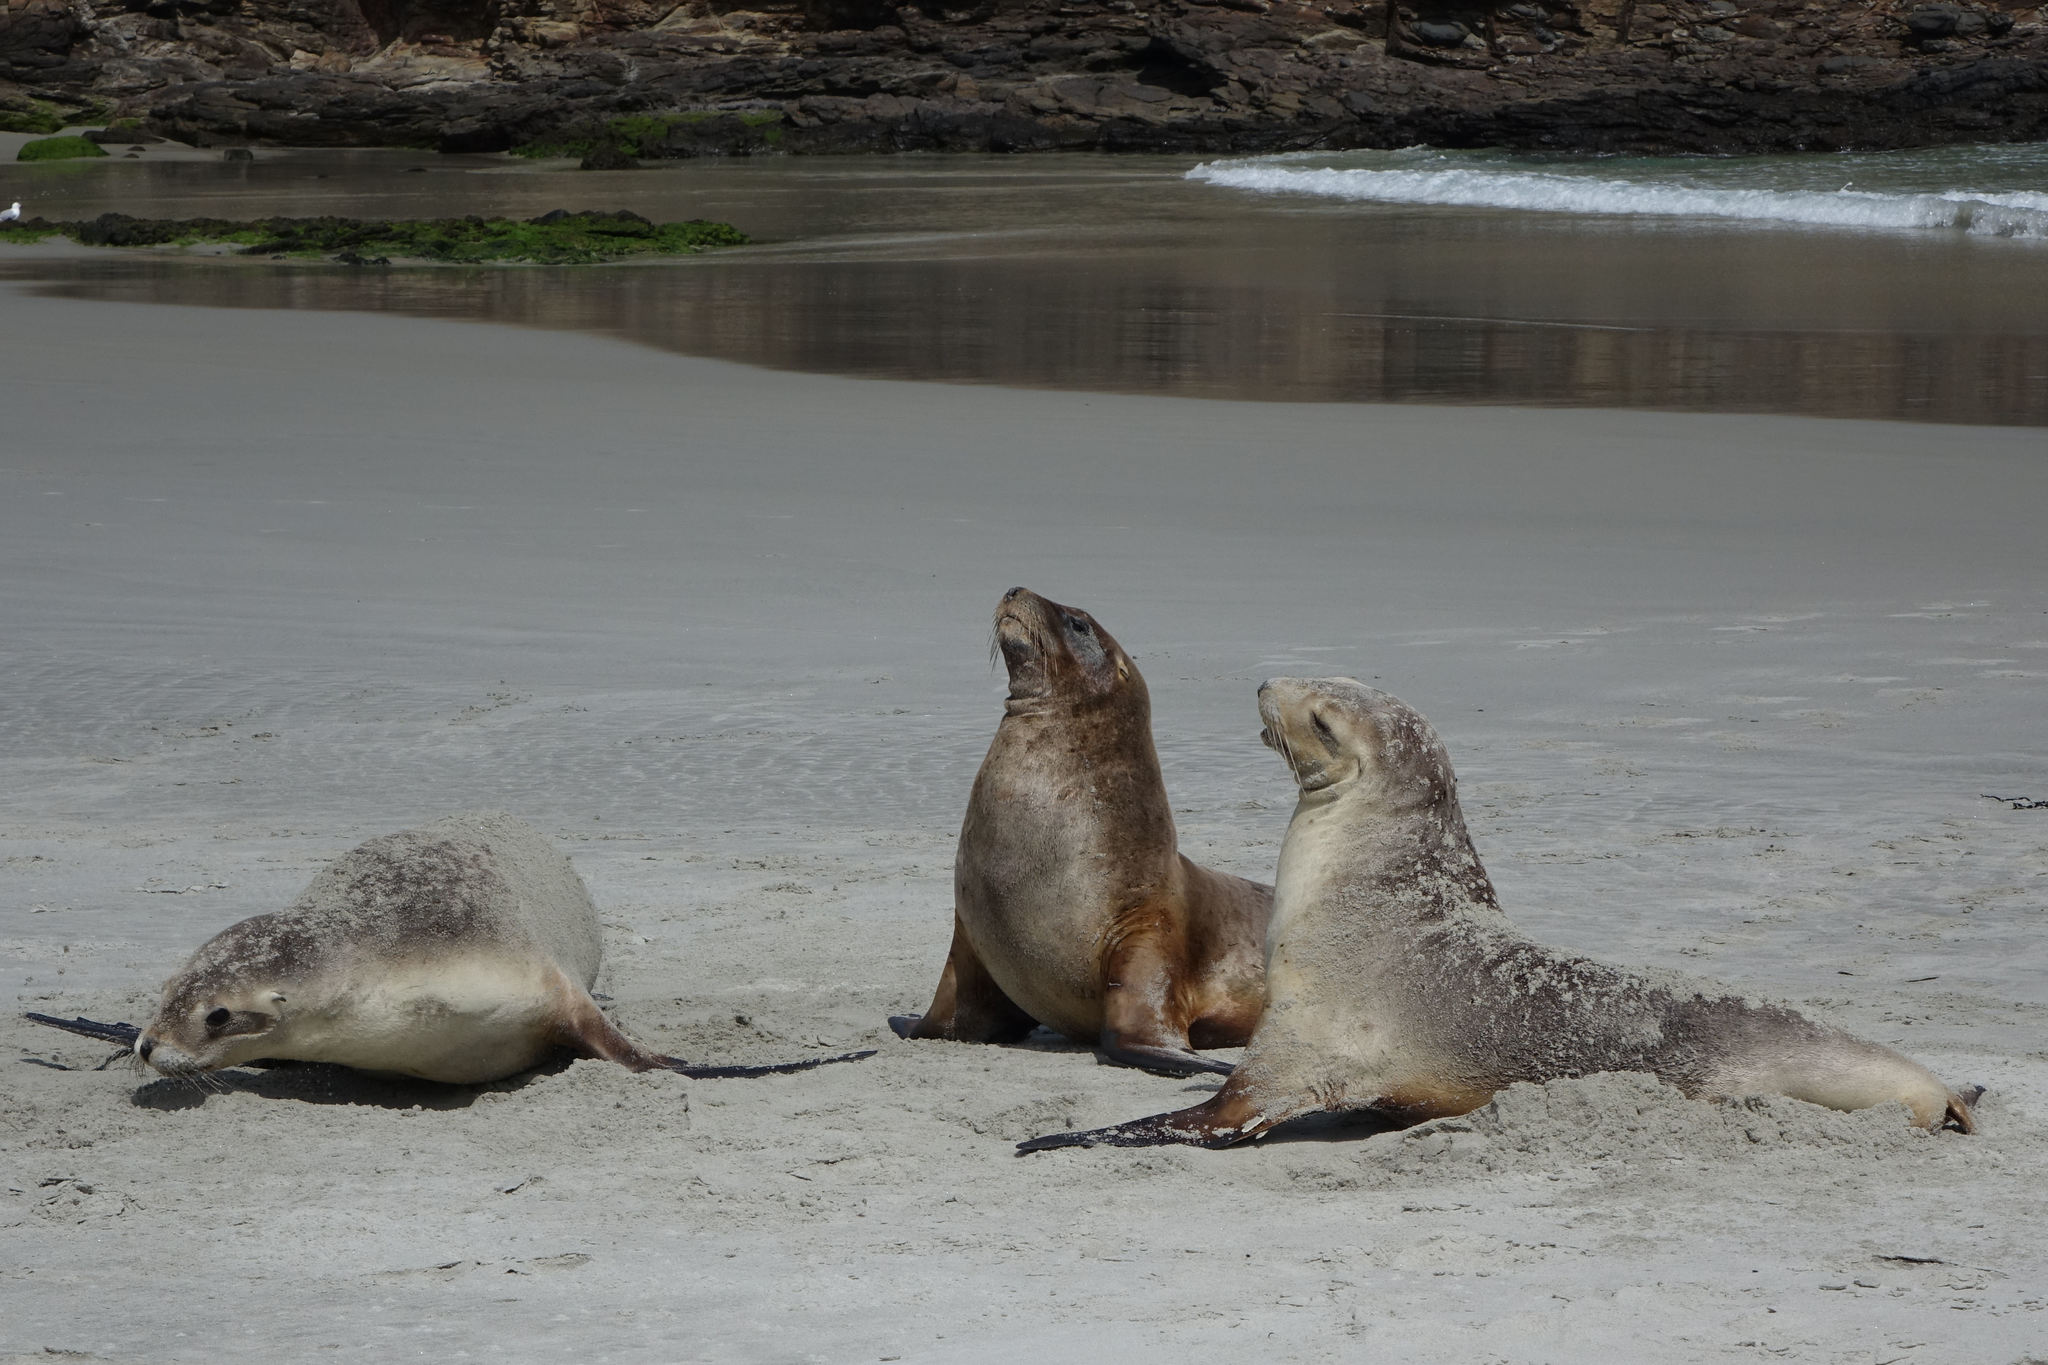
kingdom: Animalia
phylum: Chordata
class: Mammalia
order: Carnivora
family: Otariidae
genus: Phocarctos
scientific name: Phocarctos hookeri
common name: New zealand sea lion
